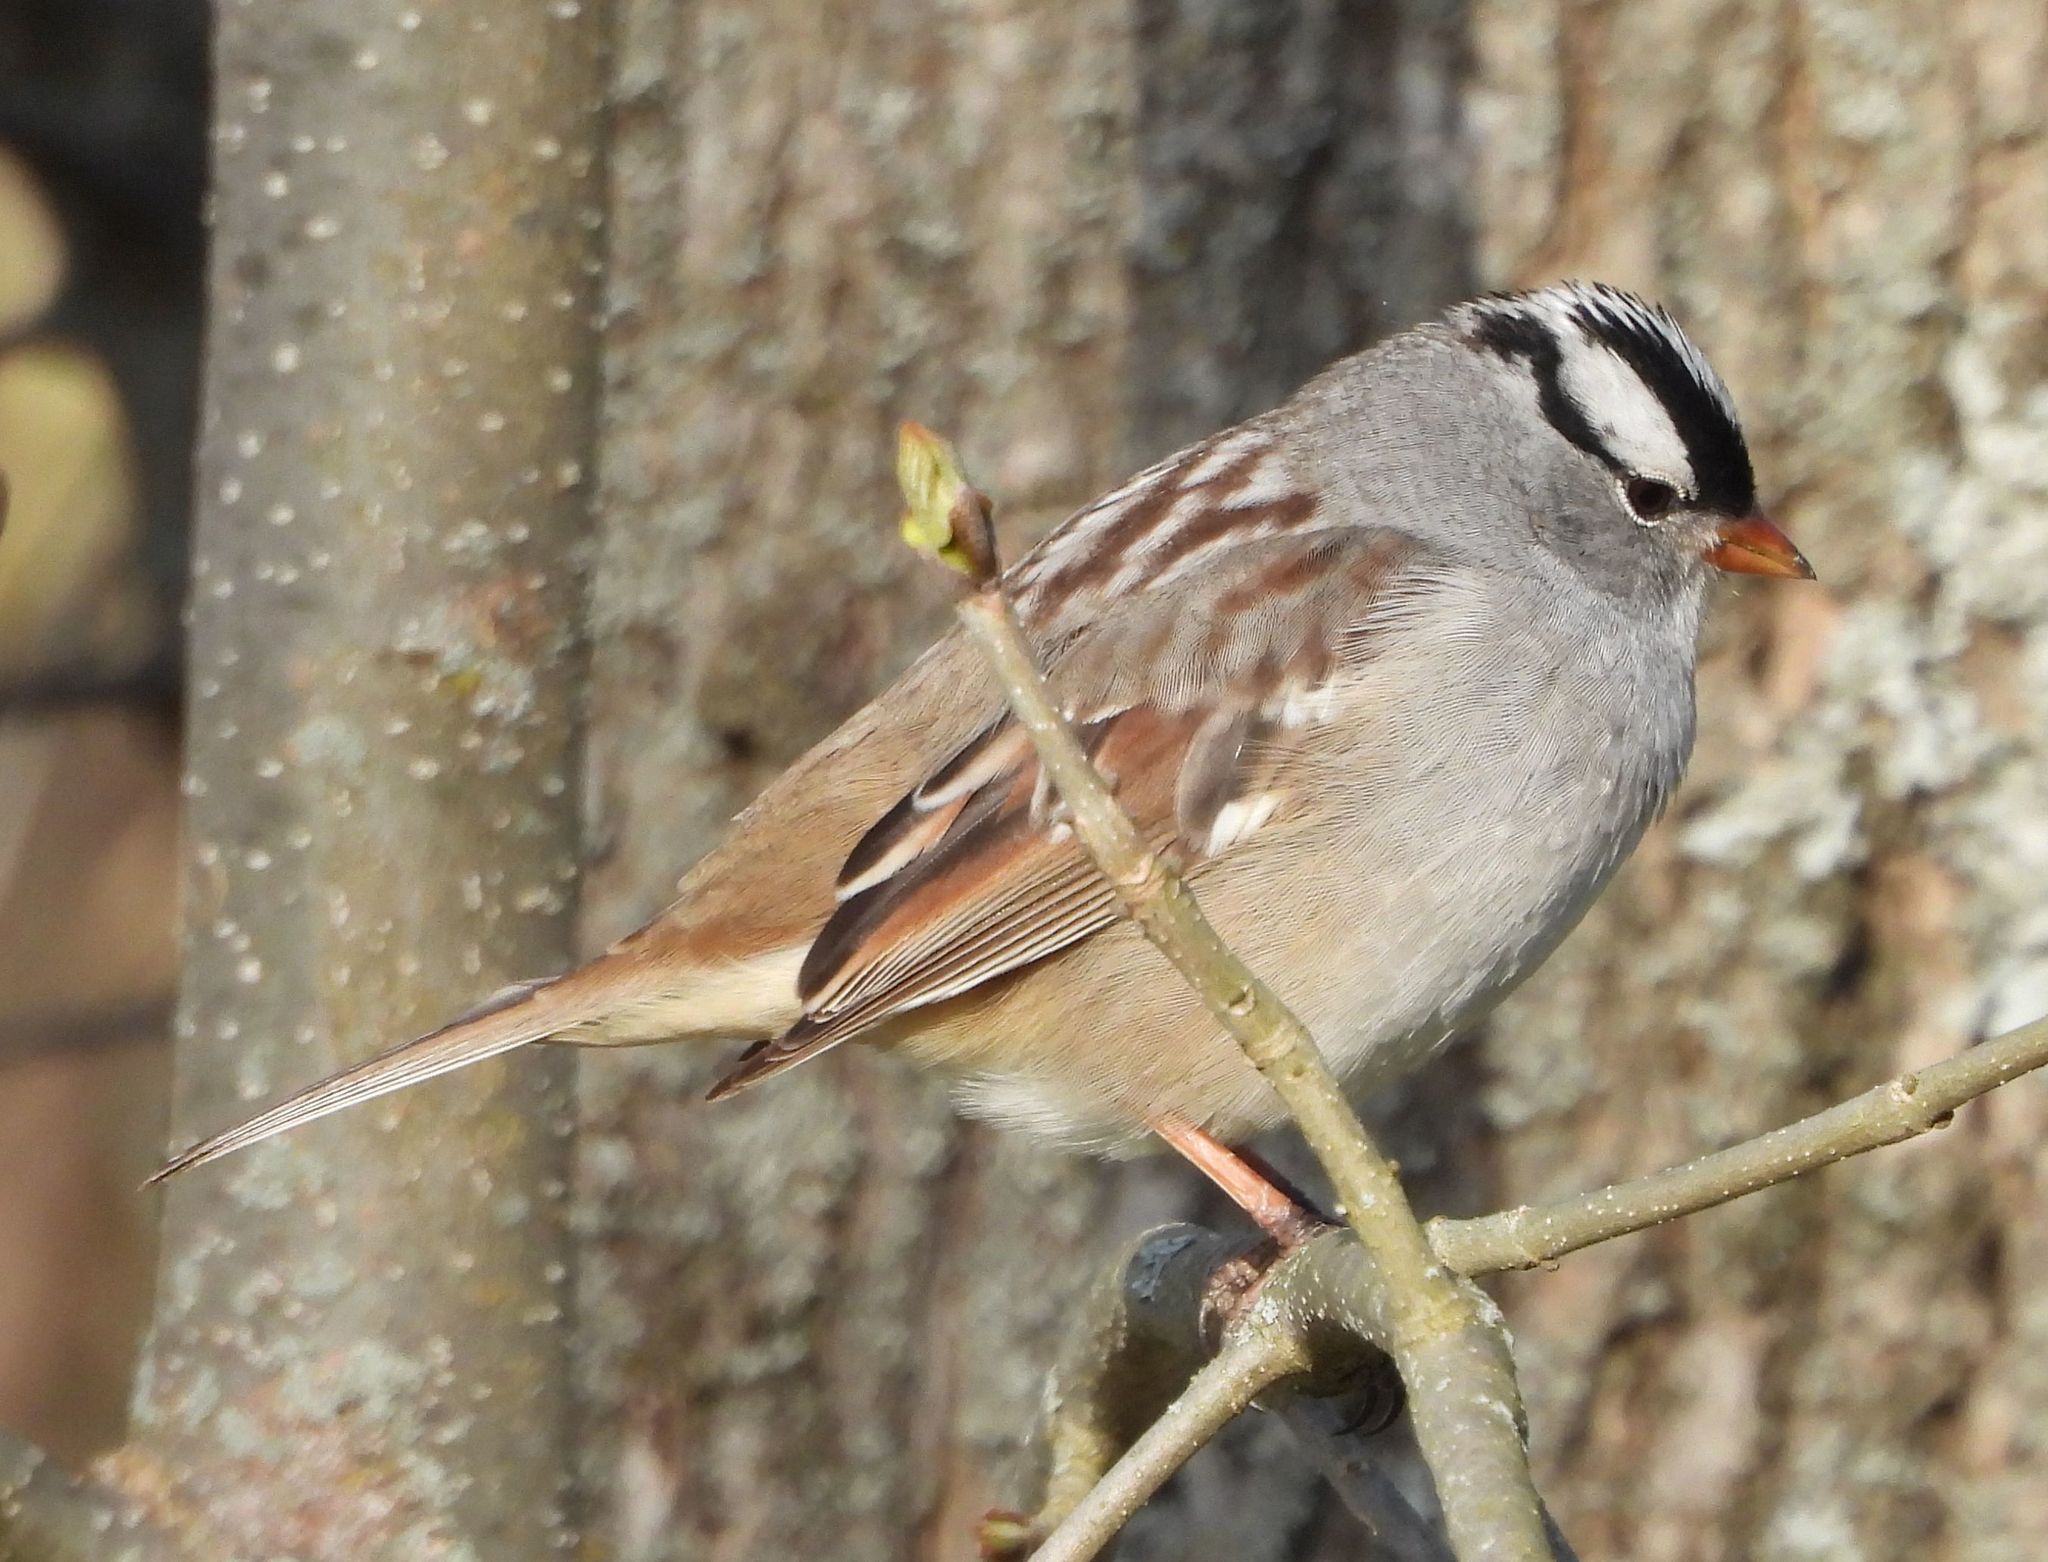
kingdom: Animalia
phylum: Chordata
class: Aves
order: Passeriformes
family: Passerellidae
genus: Zonotrichia
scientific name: Zonotrichia leucophrys
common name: White-crowned sparrow
